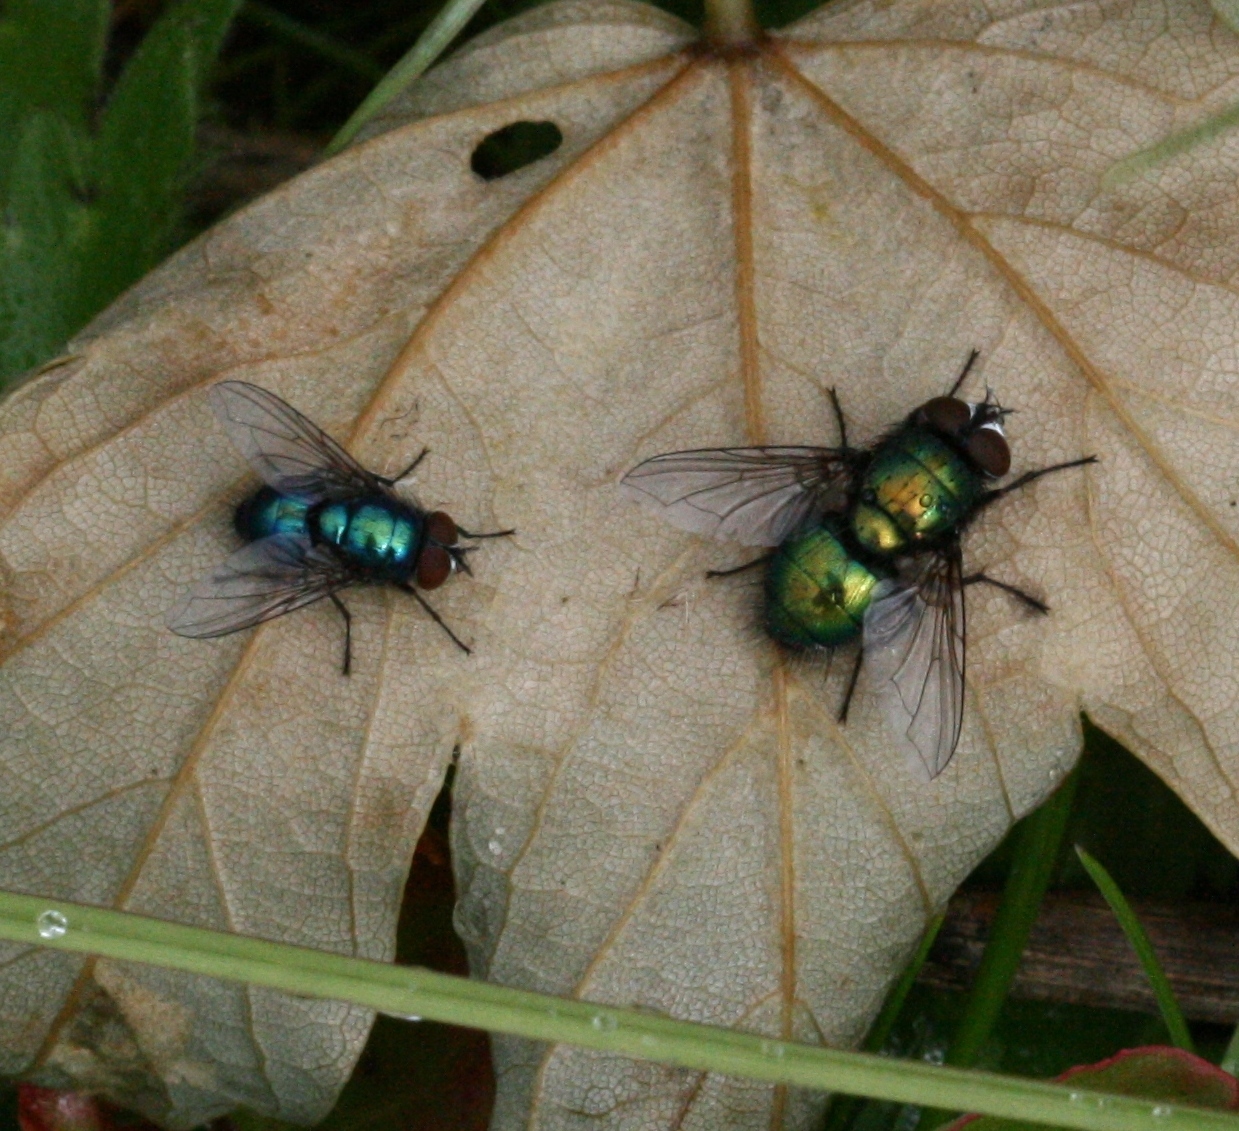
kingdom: Animalia
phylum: Arthropoda
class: Insecta
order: Diptera
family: Calliphoridae
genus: Lucilia
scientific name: Lucilia
